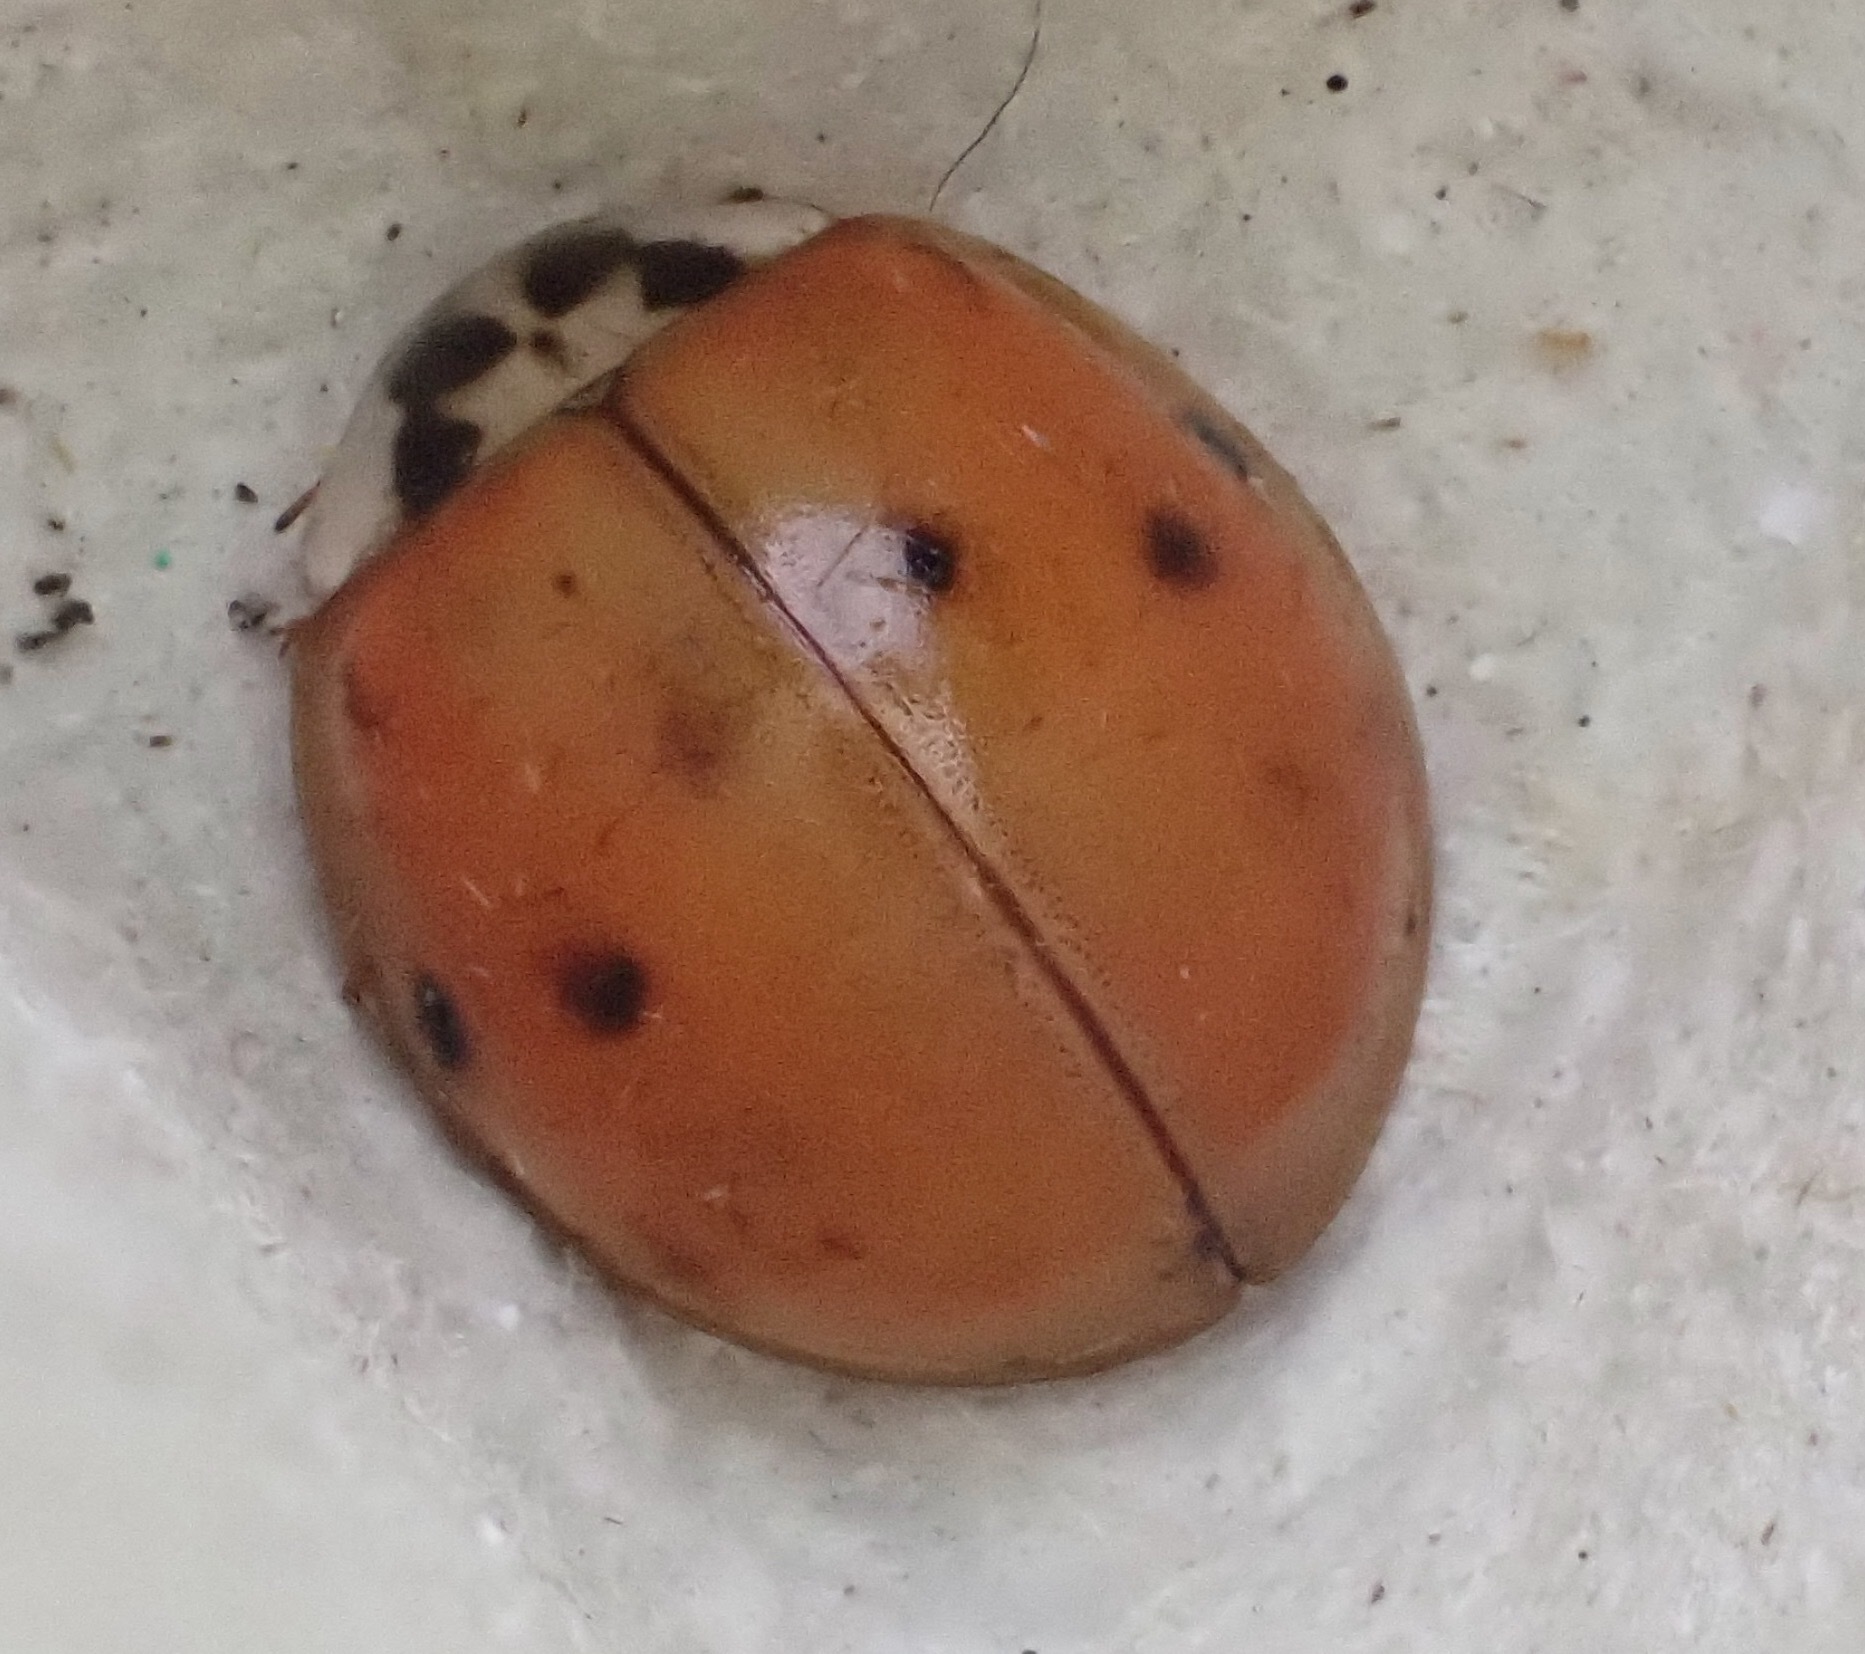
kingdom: Animalia
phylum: Arthropoda
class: Insecta
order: Coleoptera
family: Coccinellidae
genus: Harmonia
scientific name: Harmonia axyridis
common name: Harlequin ladybird
